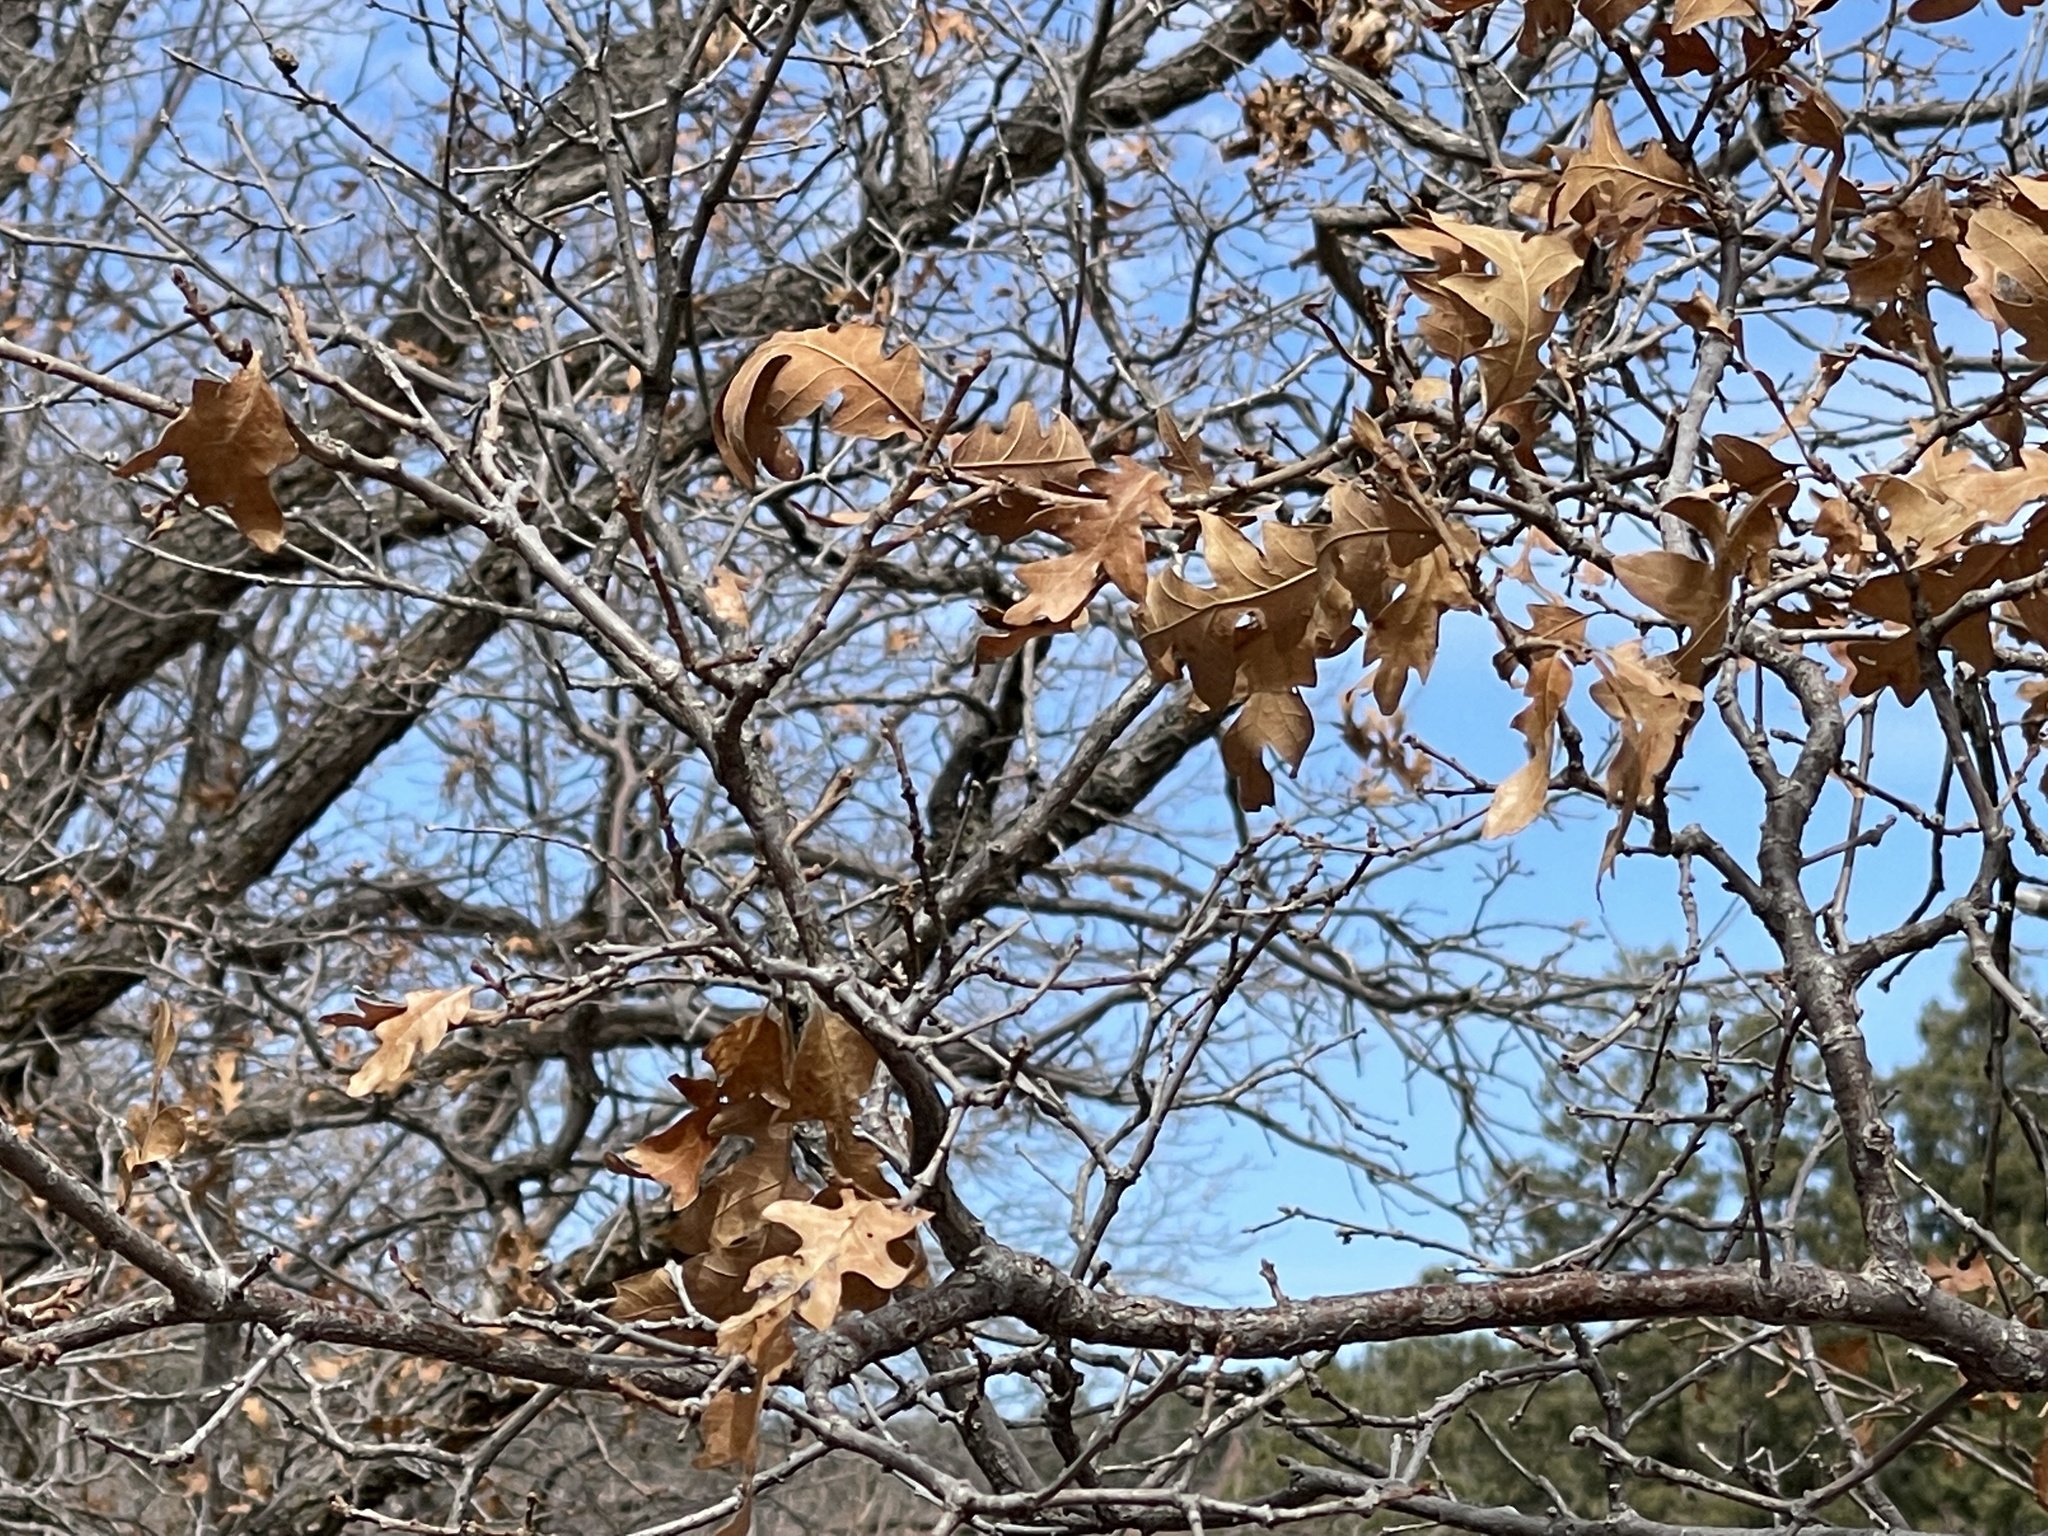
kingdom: Plantae
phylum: Tracheophyta
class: Magnoliopsida
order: Fagales
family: Fagaceae
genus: Quercus
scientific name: Quercus gambelii
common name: Gambel oak
